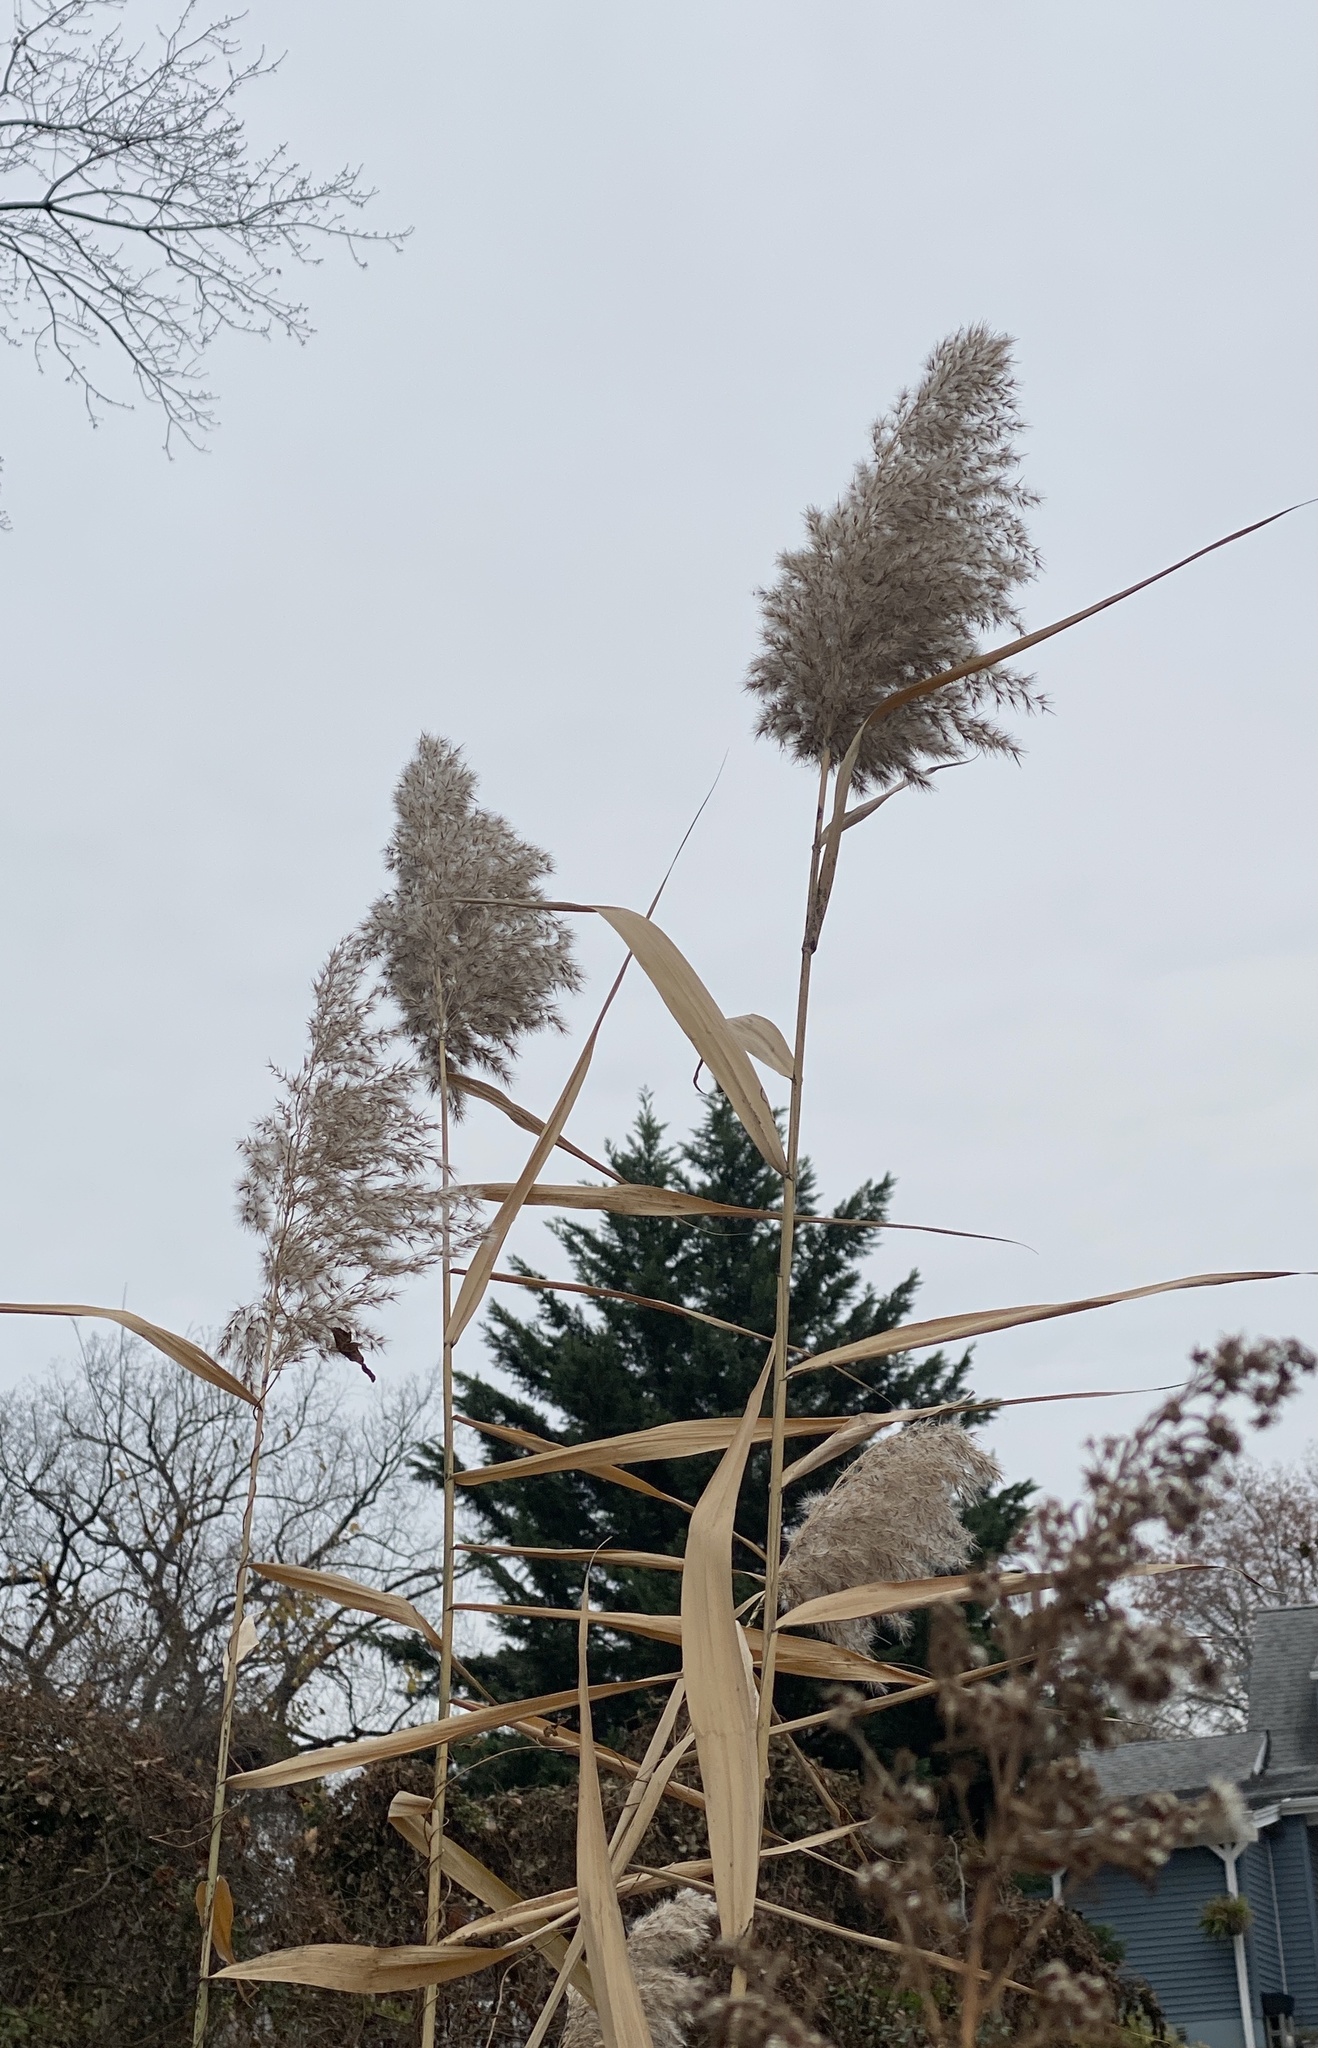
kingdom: Plantae
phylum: Tracheophyta
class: Liliopsida
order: Poales
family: Poaceae
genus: Phragmites
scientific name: Phragmites australis
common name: Common reed
